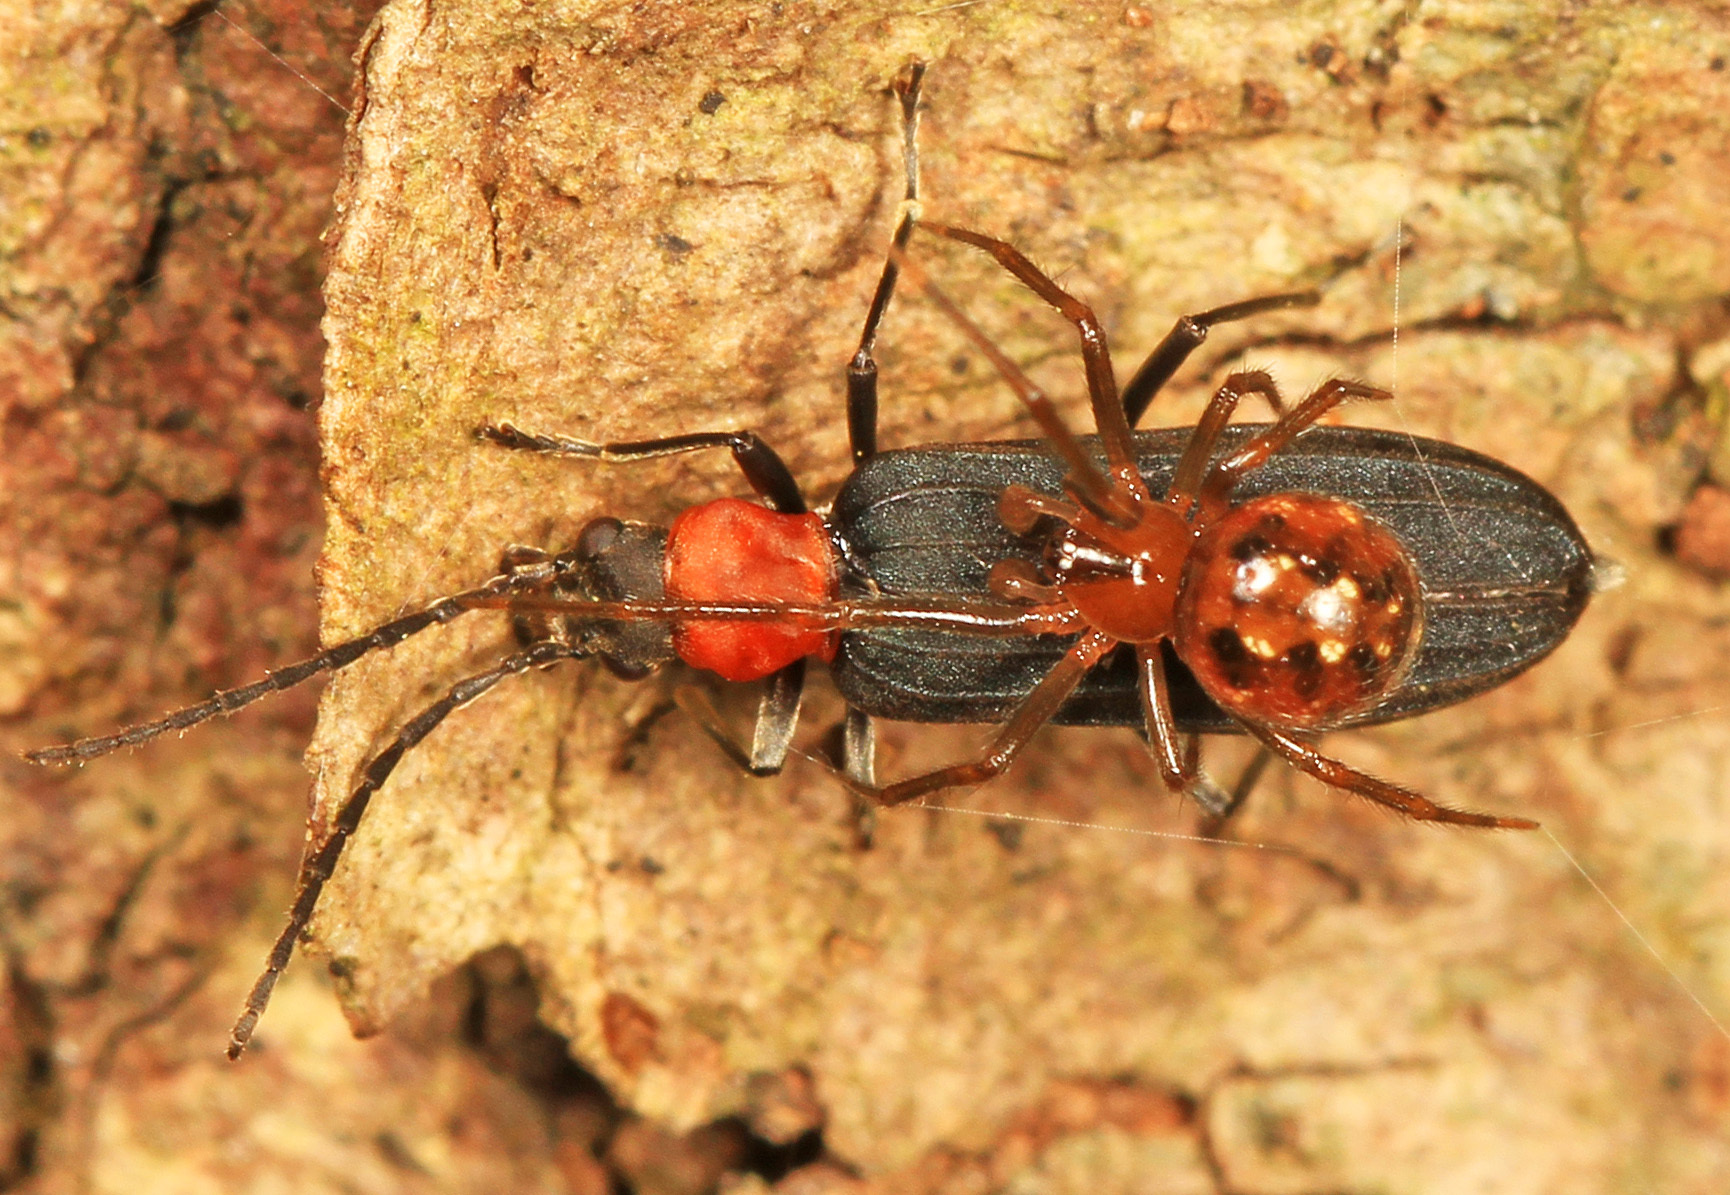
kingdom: Animalia
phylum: Arthropoda
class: Insecta
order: Coleoptera
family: Oedemeridae
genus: Ischnomera
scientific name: Ischnomera
